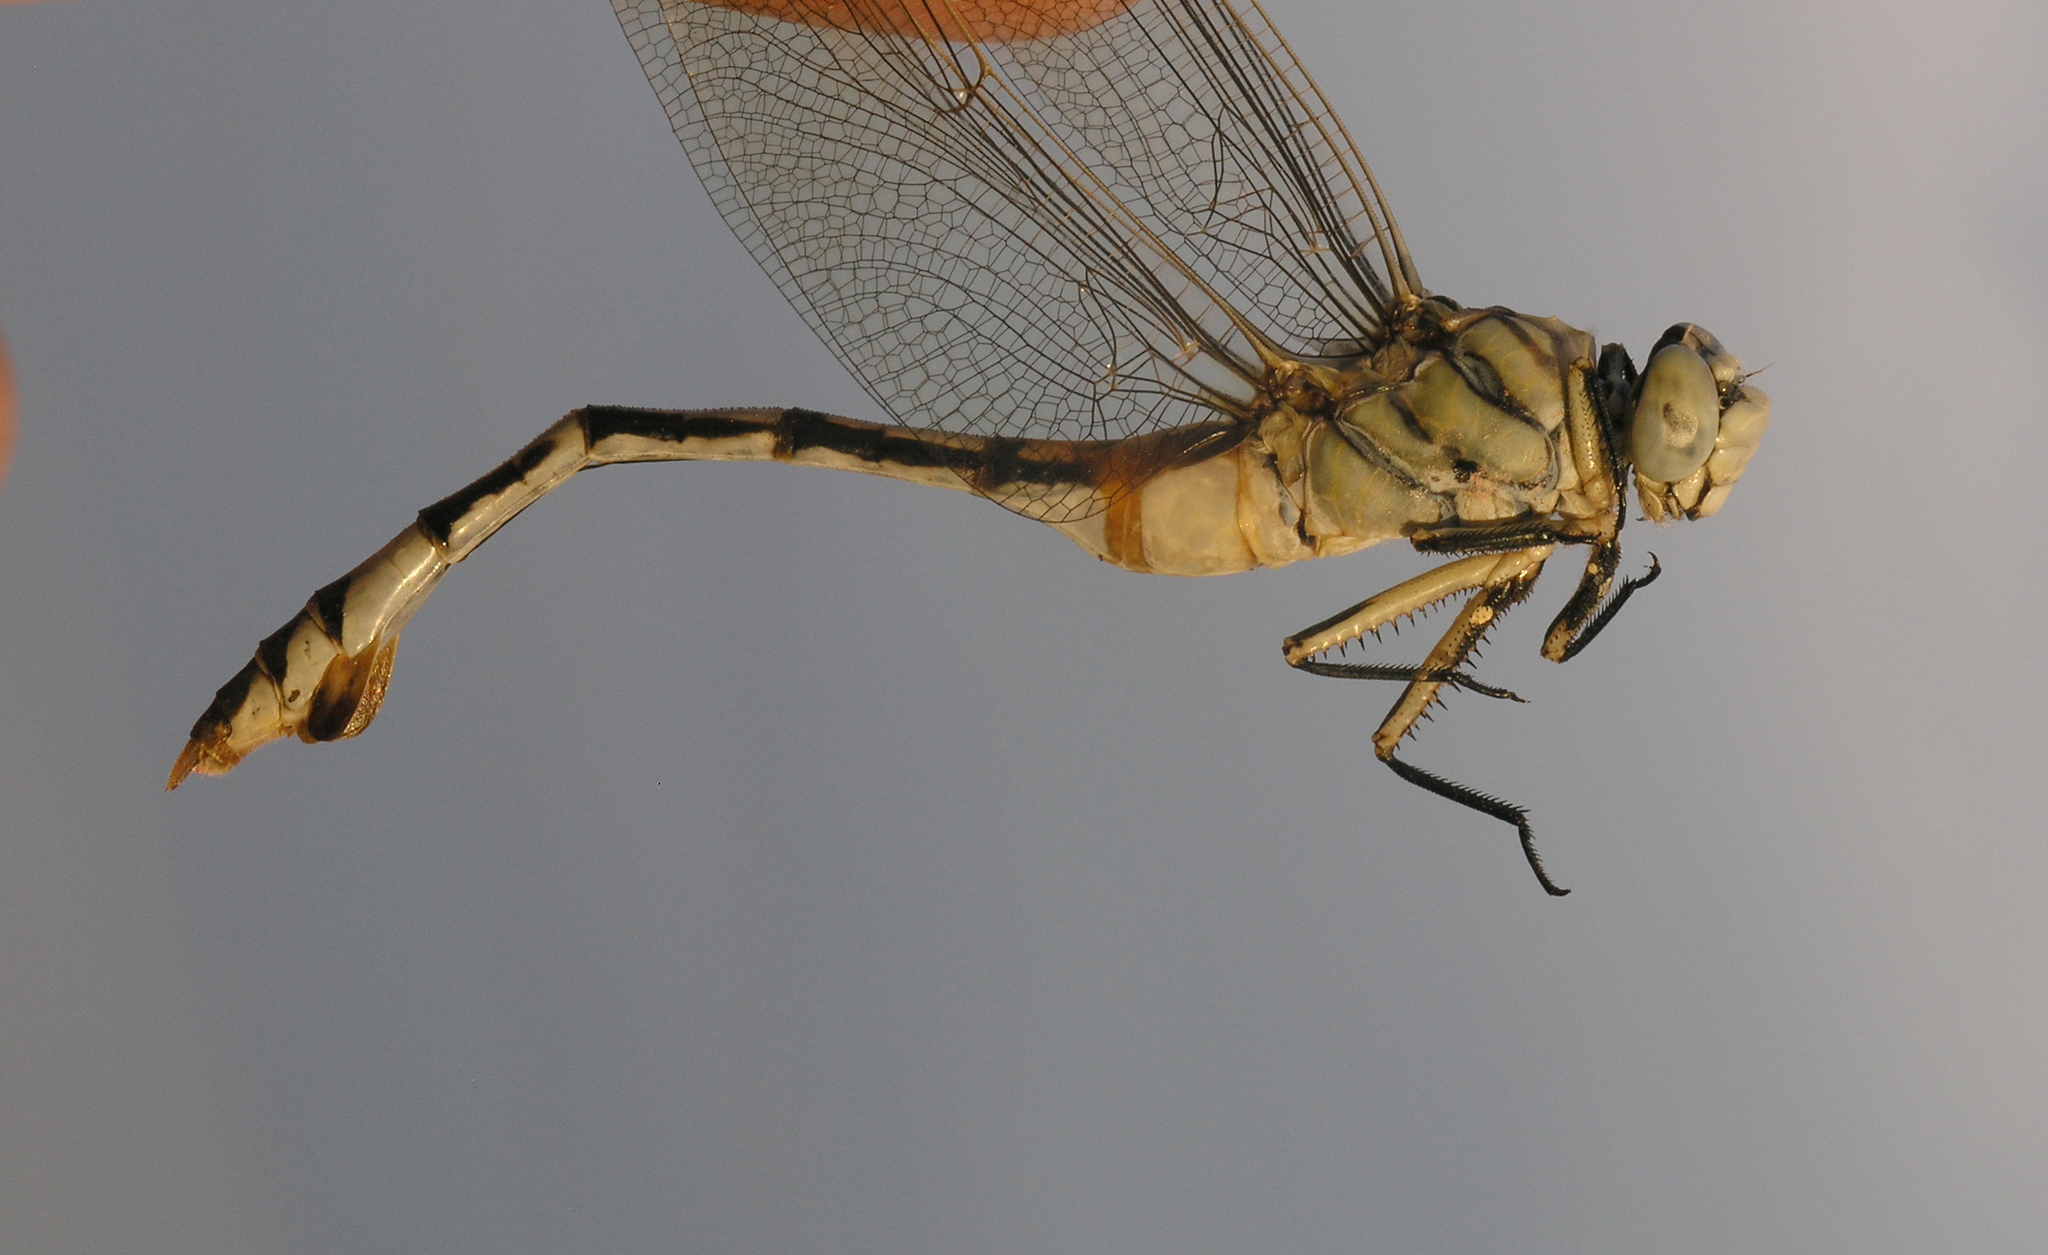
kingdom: Animalia
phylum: Arthropoda
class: Insecta
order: Odonata
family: Gomphidae
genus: Lindenia
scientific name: Lindenia tetraphylla
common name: Bladetail
